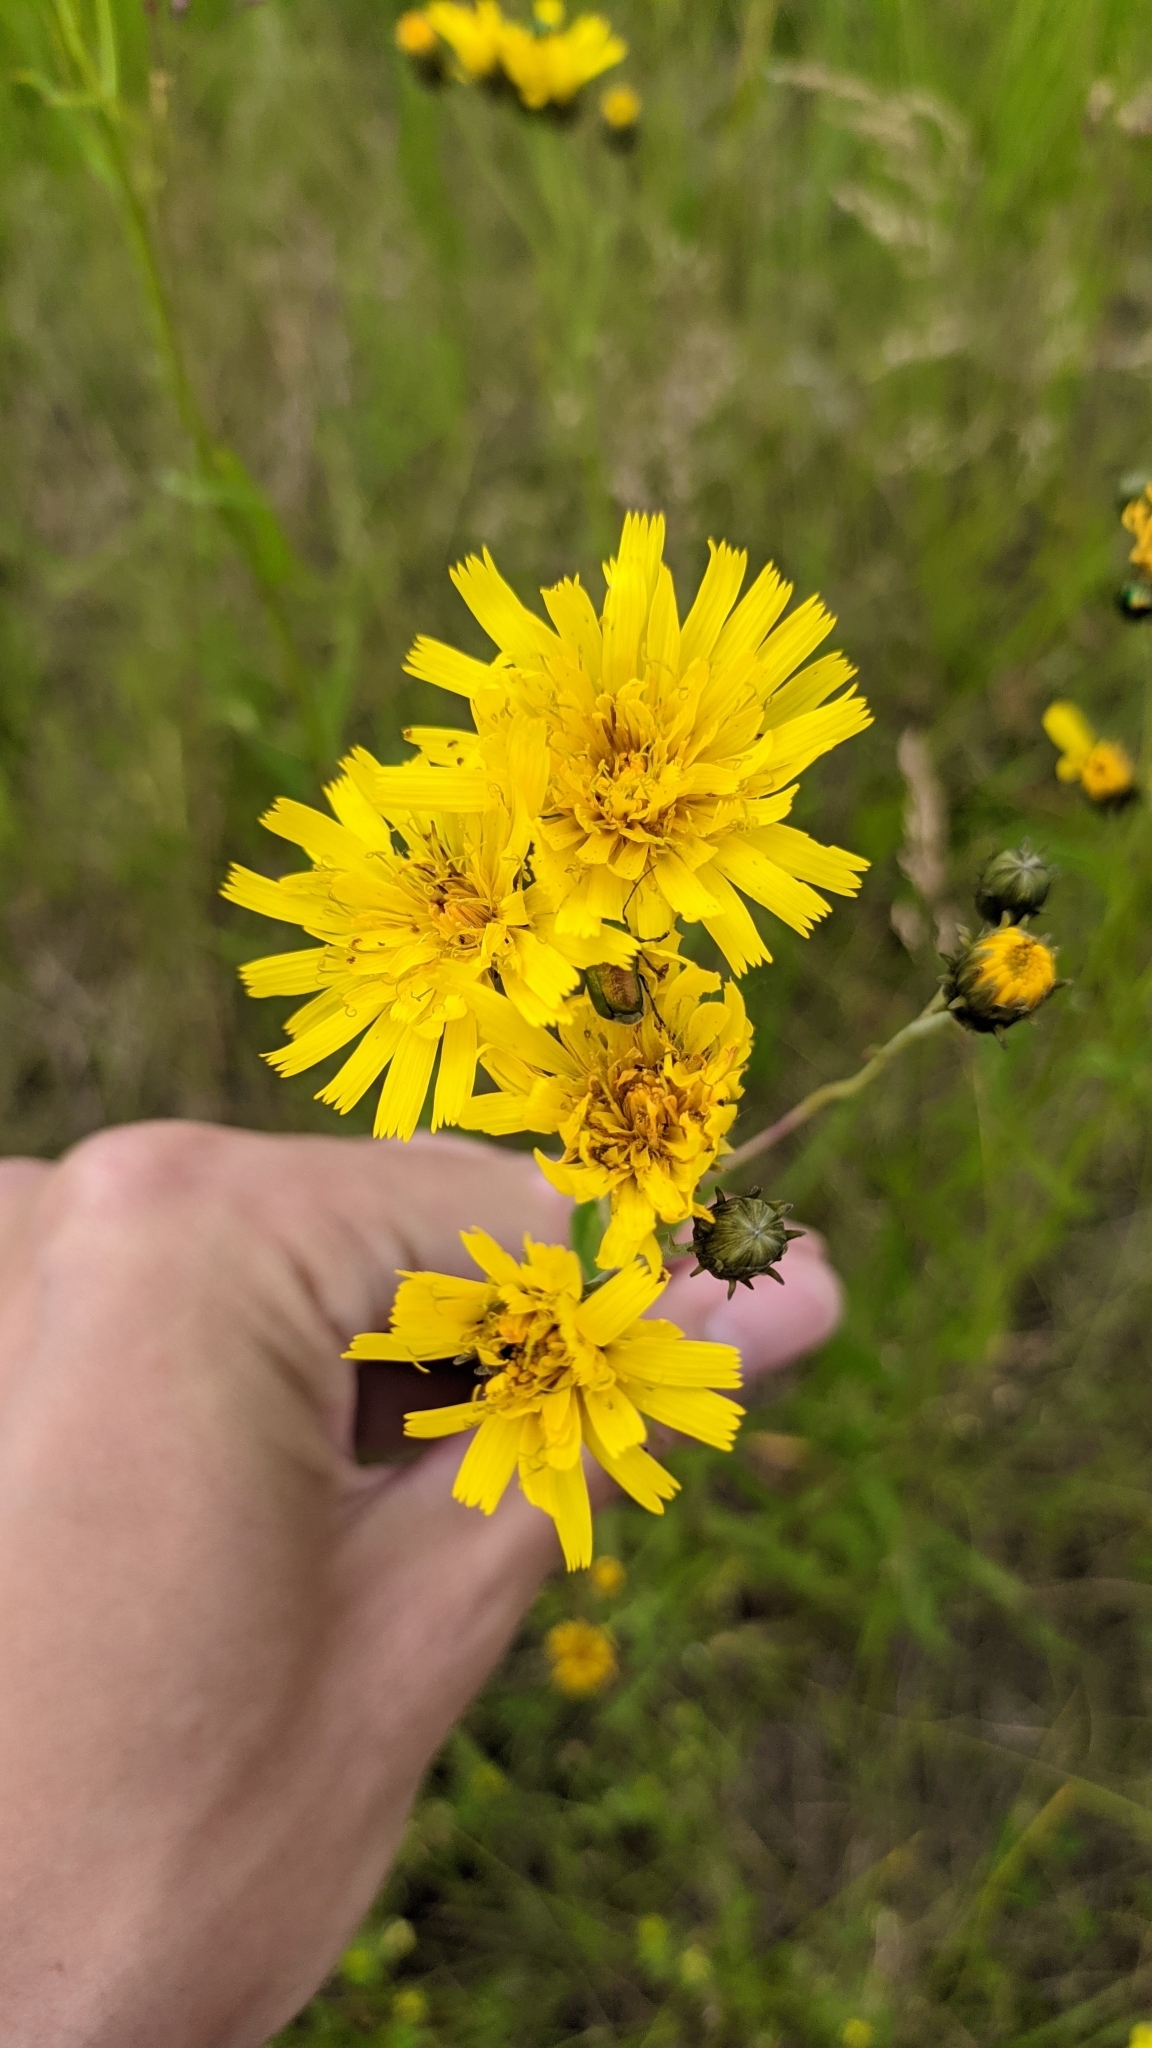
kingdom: Plantae
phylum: Tracheophyta
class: Magnoliopsida
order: Asterales
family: Asteraceae
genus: Hieracium
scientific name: Hieracium umbellatum
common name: Northern hawkweed
